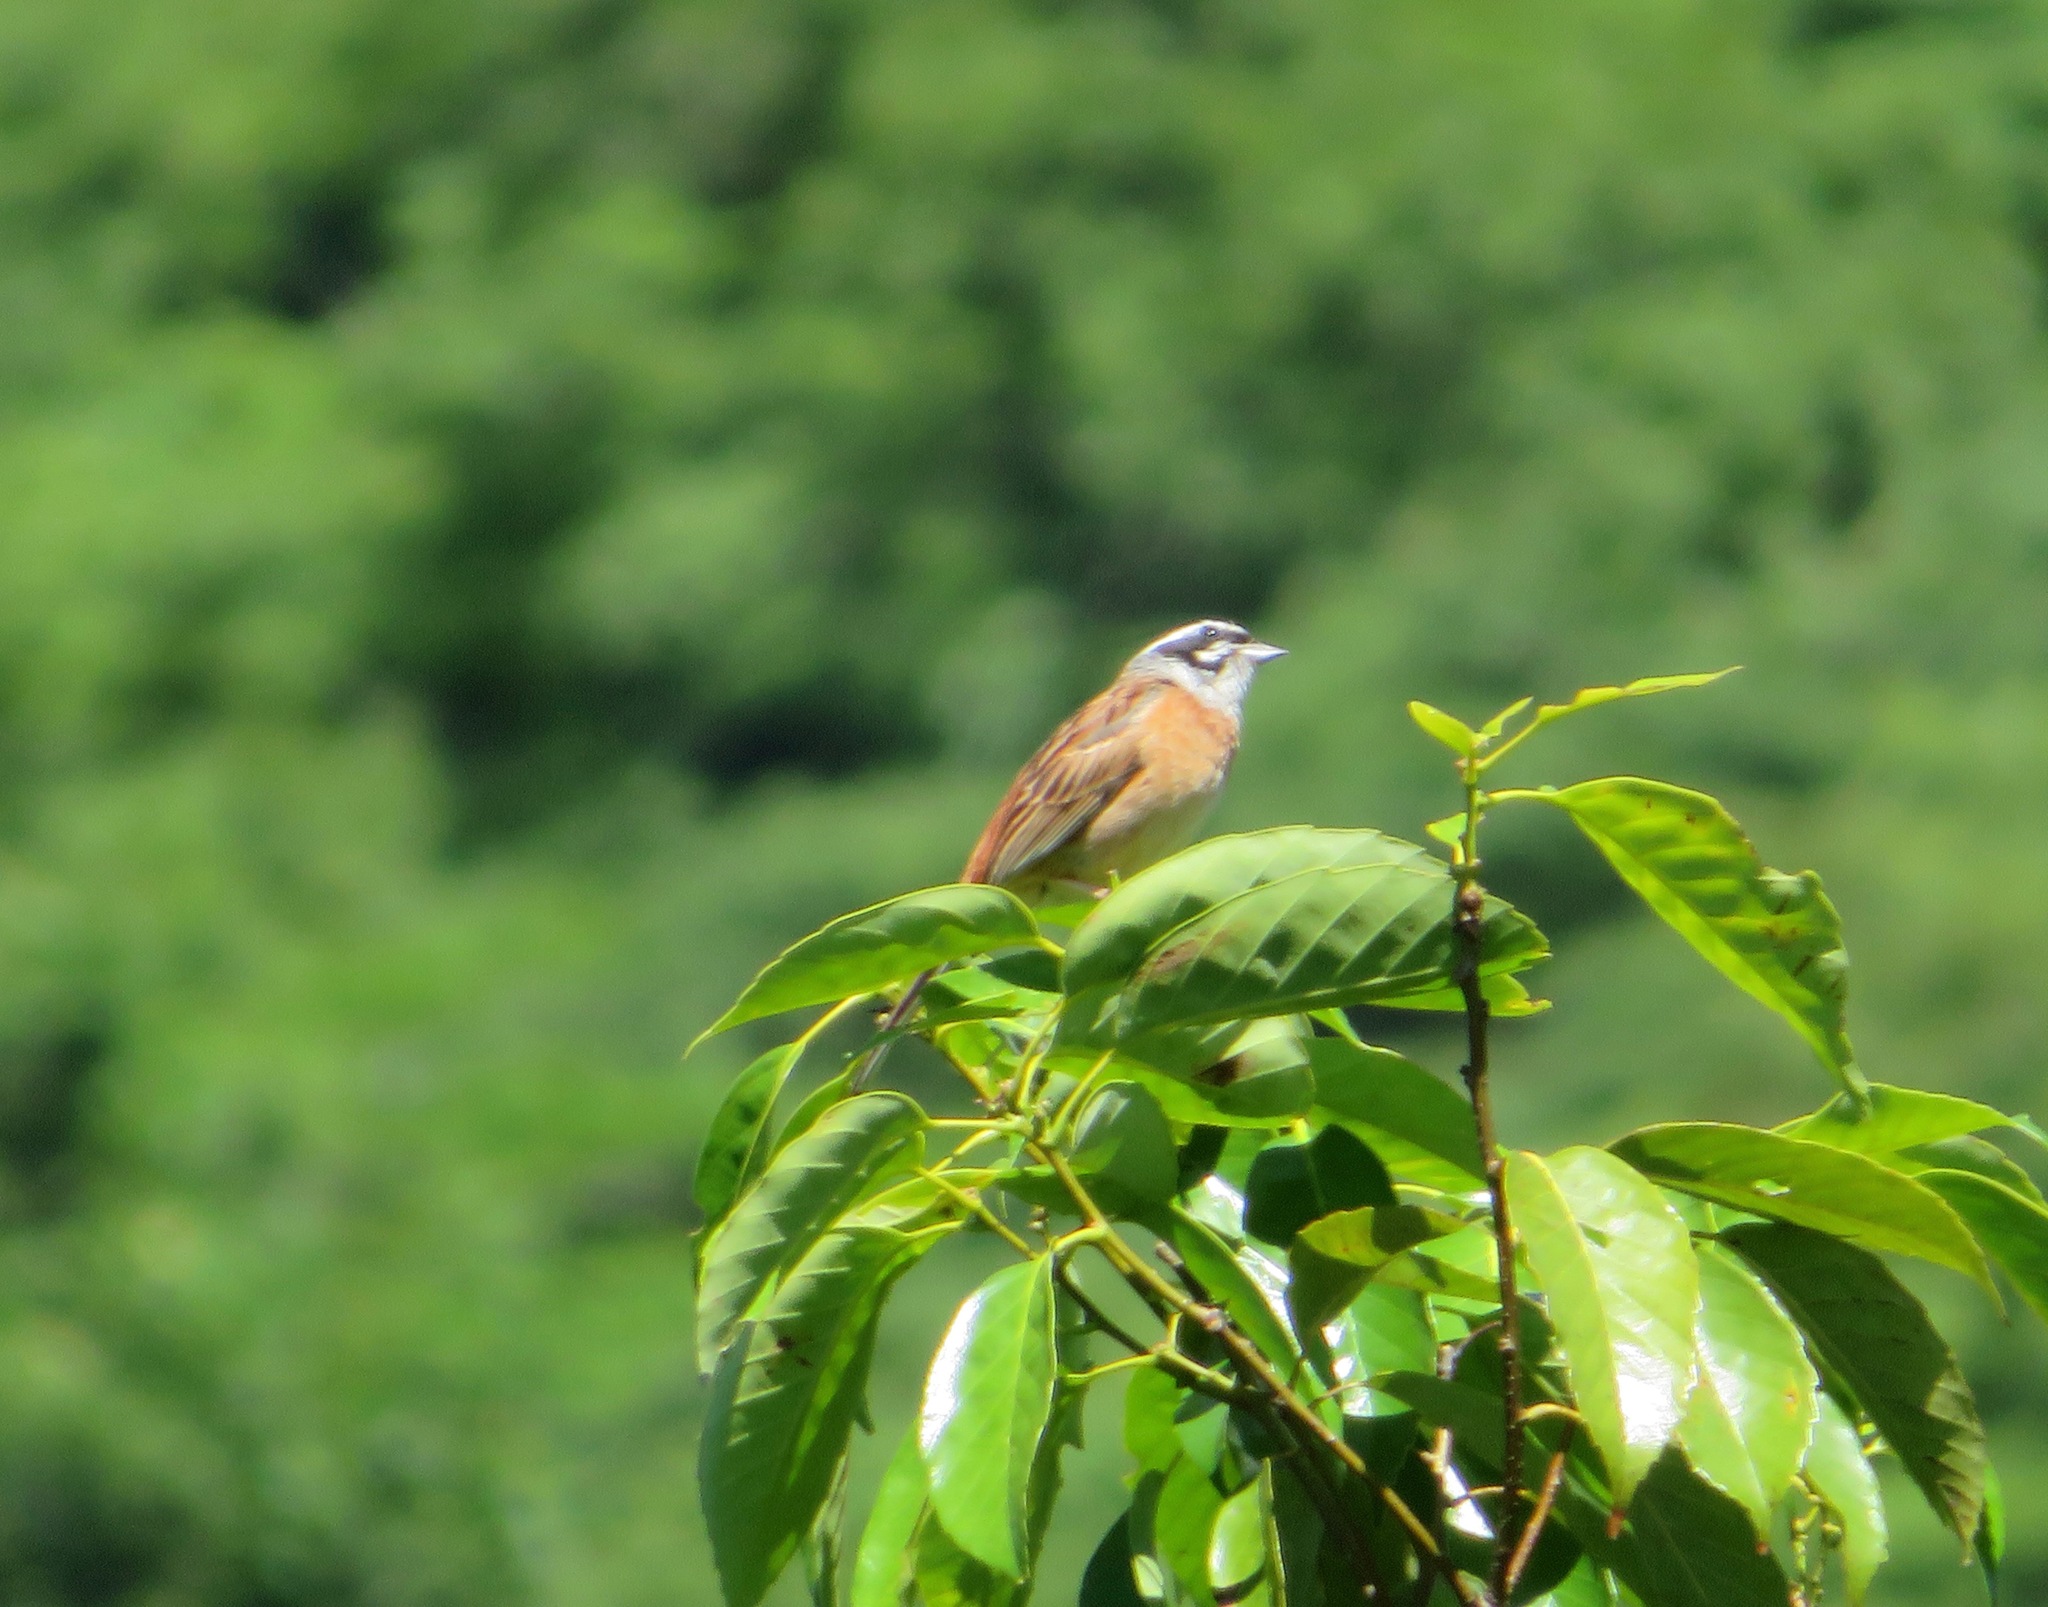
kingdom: Animalia
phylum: Chordata
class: Aves
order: Passeriformes
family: Emberizidae
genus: Emberiza
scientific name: Emberiza cioides
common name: Meadow bunting
